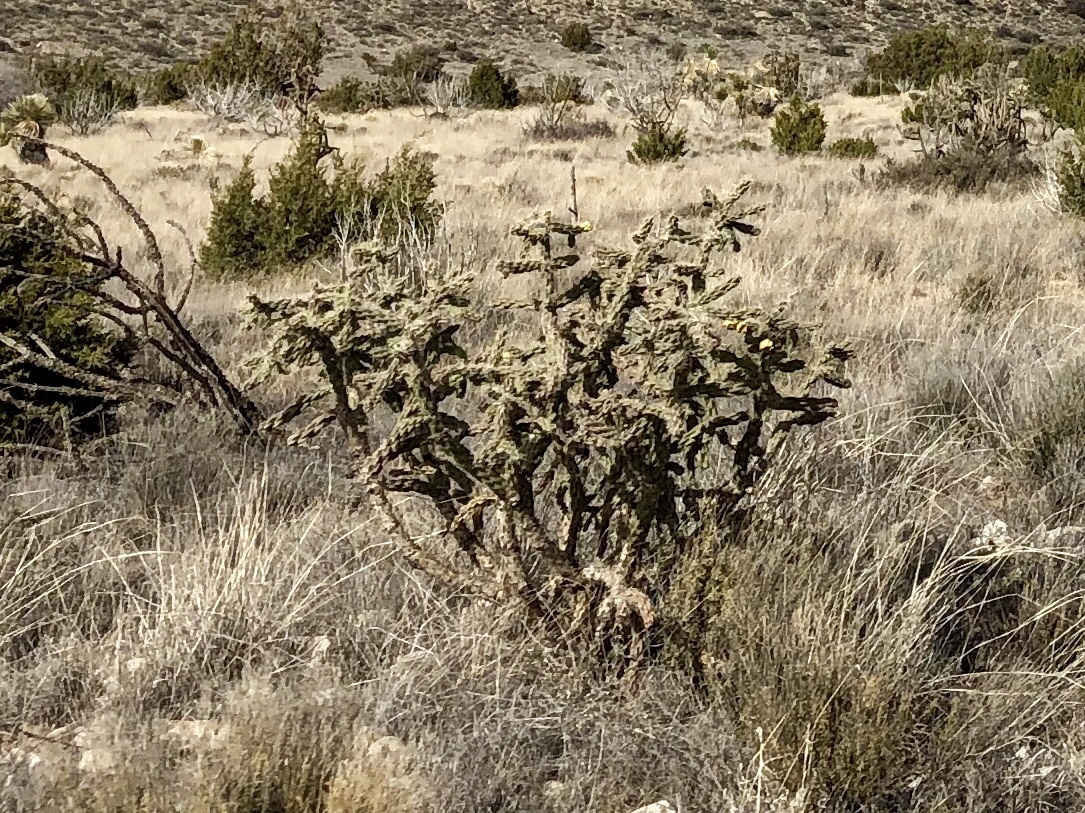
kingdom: Plantae
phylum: Tracheophyta
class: Magnoliopsida
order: Caryophyllales
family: Cactaceae
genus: Cylindropuntia
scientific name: Cylindropuntia imbricata
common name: Candelabrum cactus
